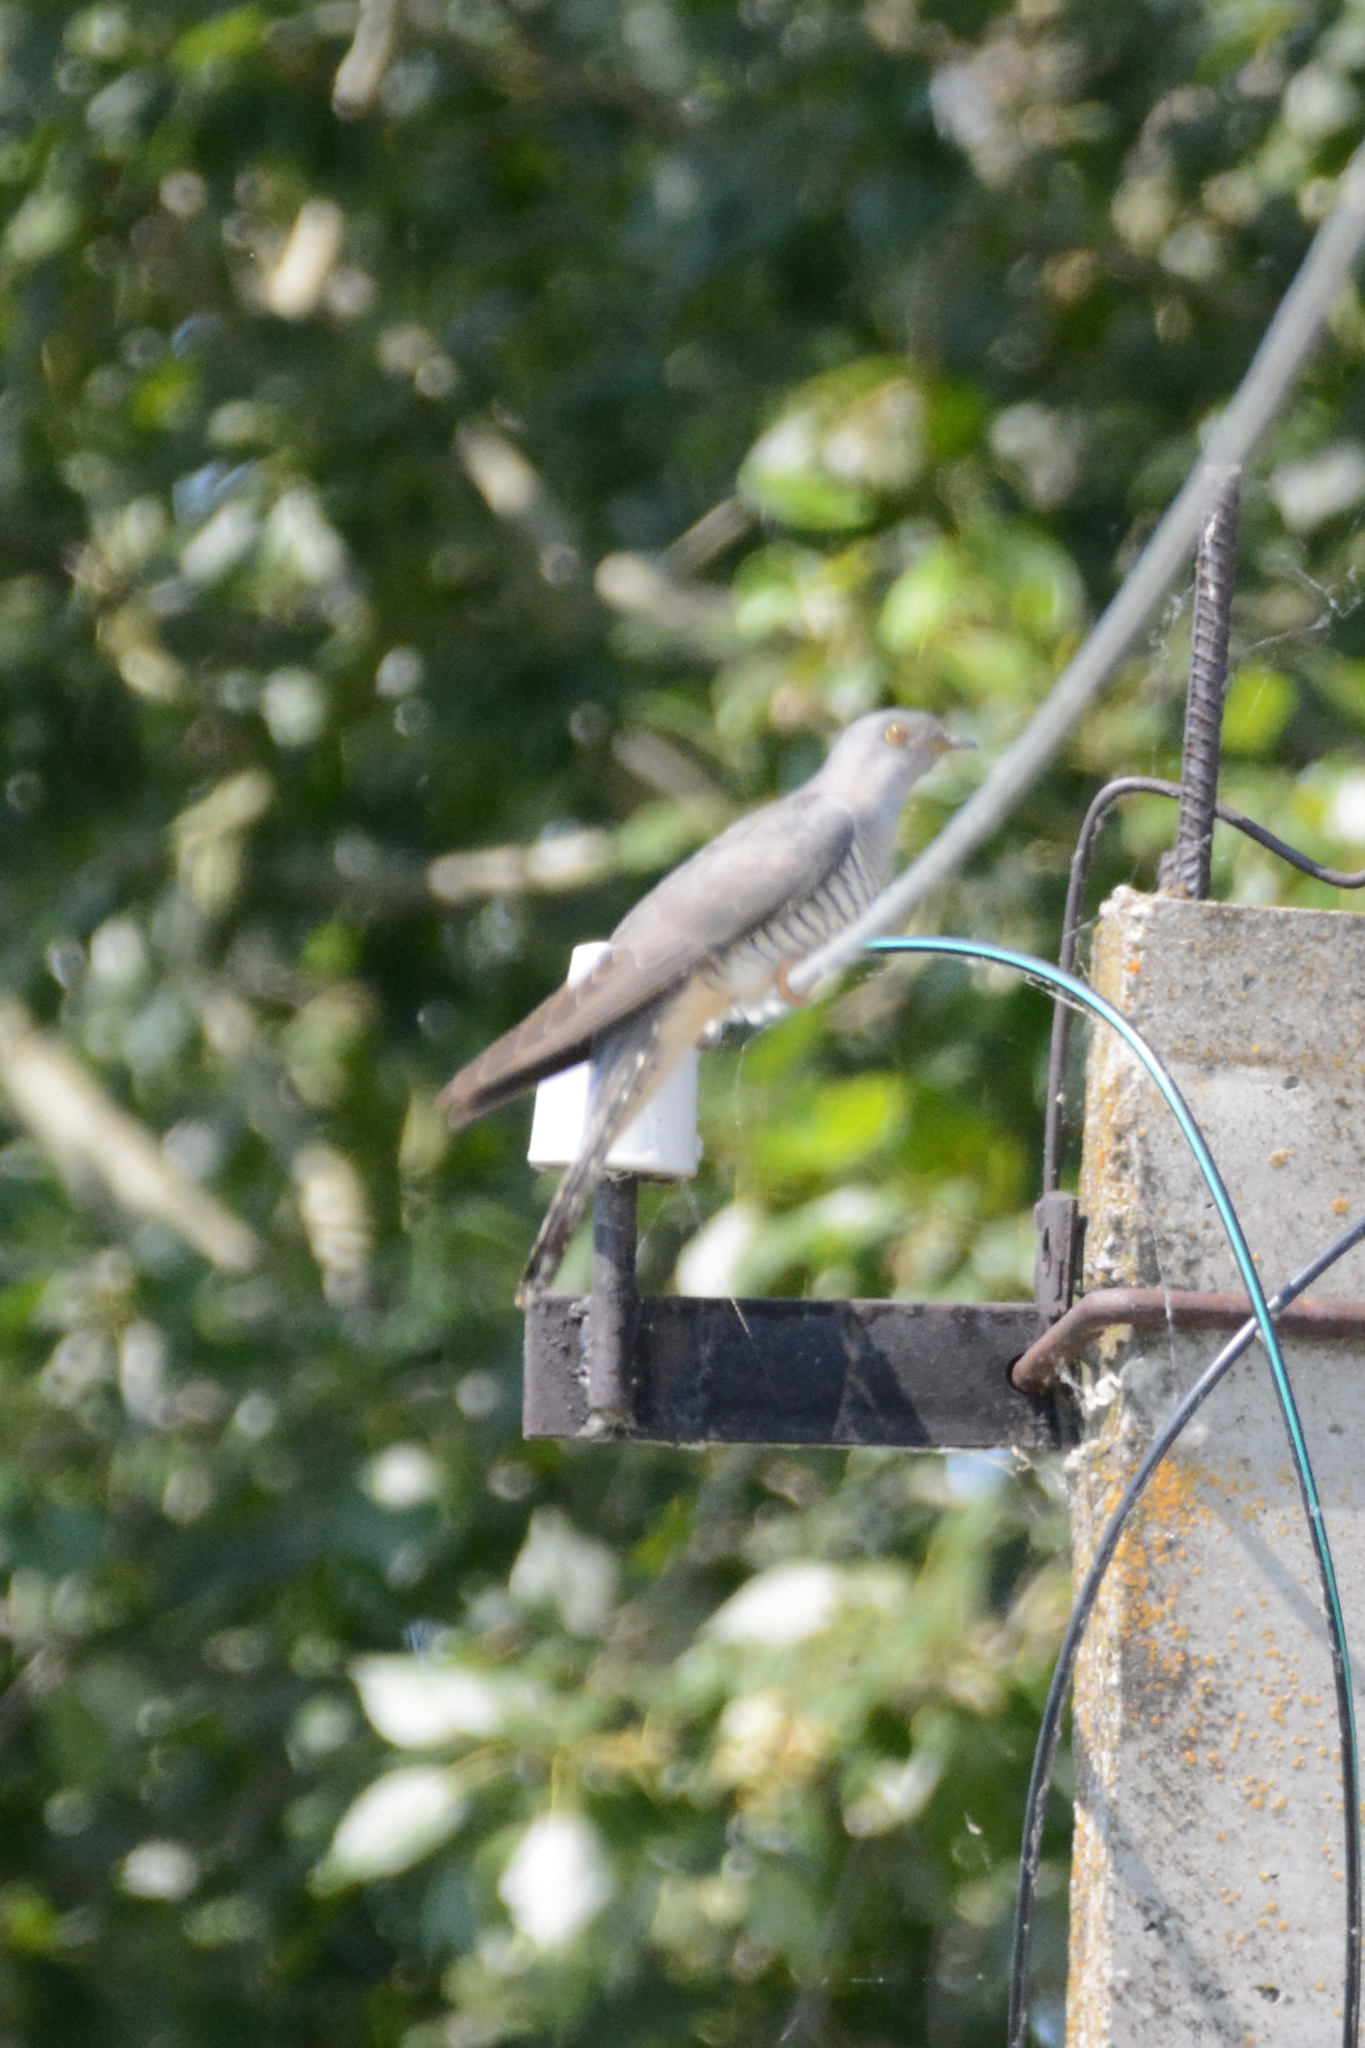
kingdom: Animalia
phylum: Chordata
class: Aves
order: Cuculiformes
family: Cuculidae
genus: Cuculus
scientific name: Cuculus canorus
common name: Common cuckoo
